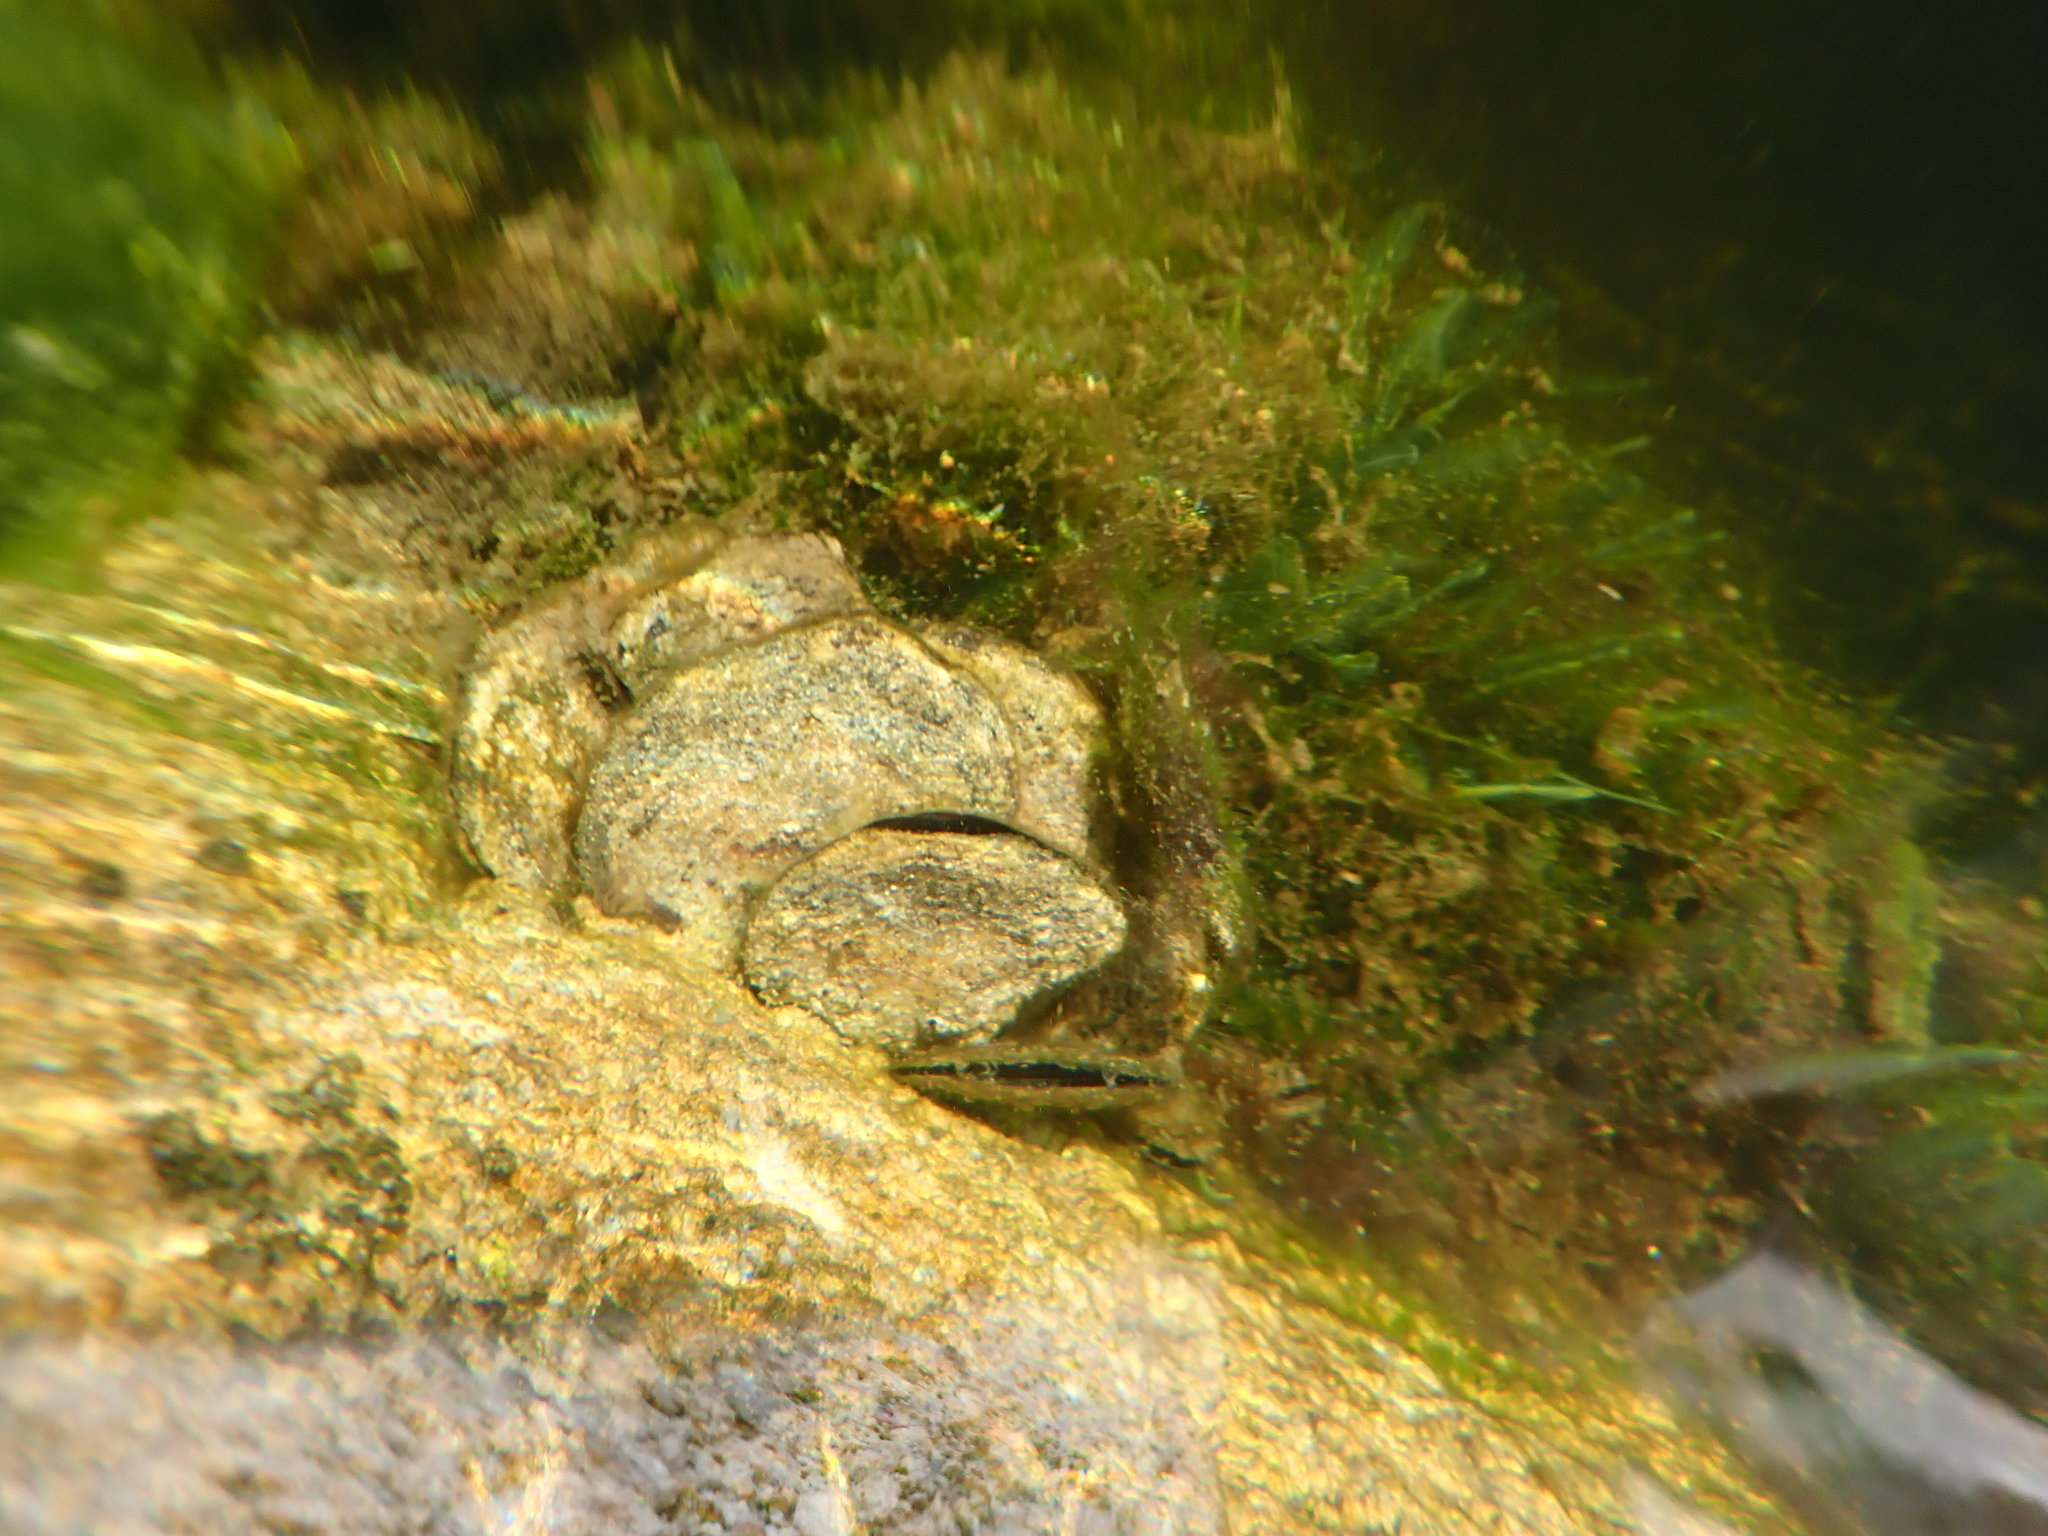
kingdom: Animalia
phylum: Mollusca
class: Bivalvia
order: Ostreida
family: Isognomonidae
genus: Isognomon
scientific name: Isognomon alatus
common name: Flat tree-oyster
